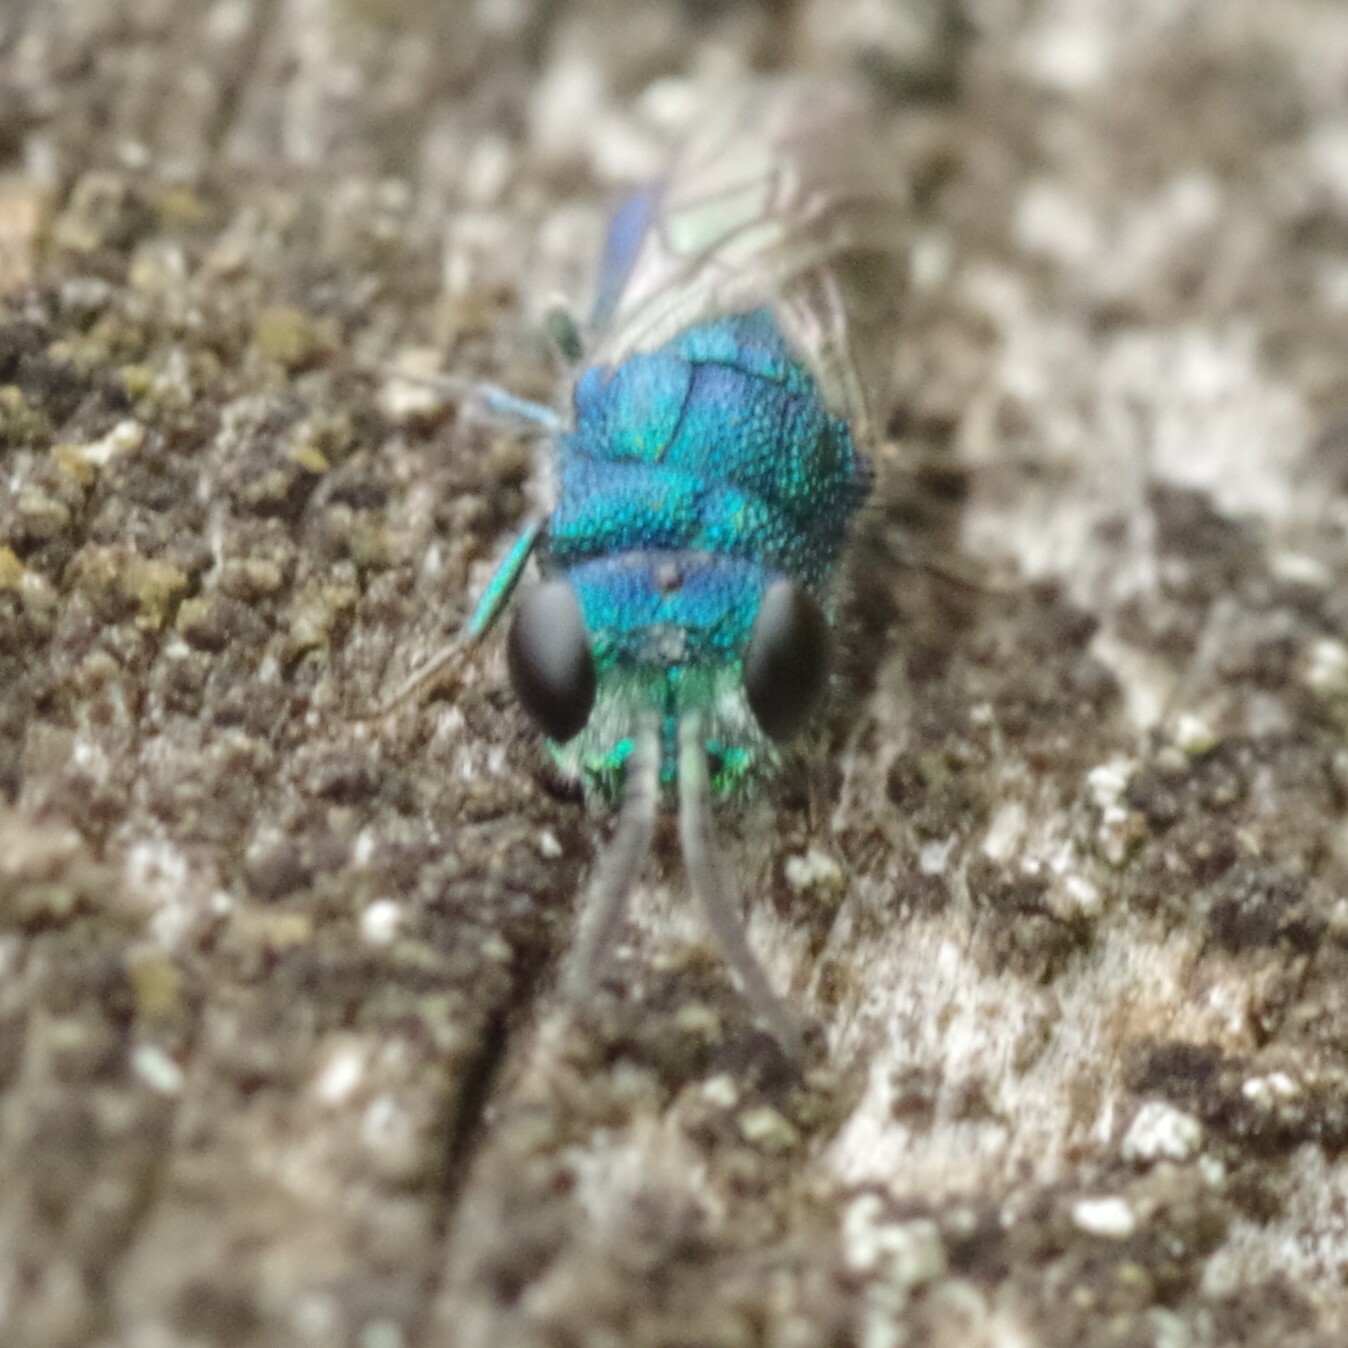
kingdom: Animalia
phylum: Arthropoda
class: Insecta
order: Hymenoptera
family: Pompilidae
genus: Pepsis
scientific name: Pepsis cyanea
